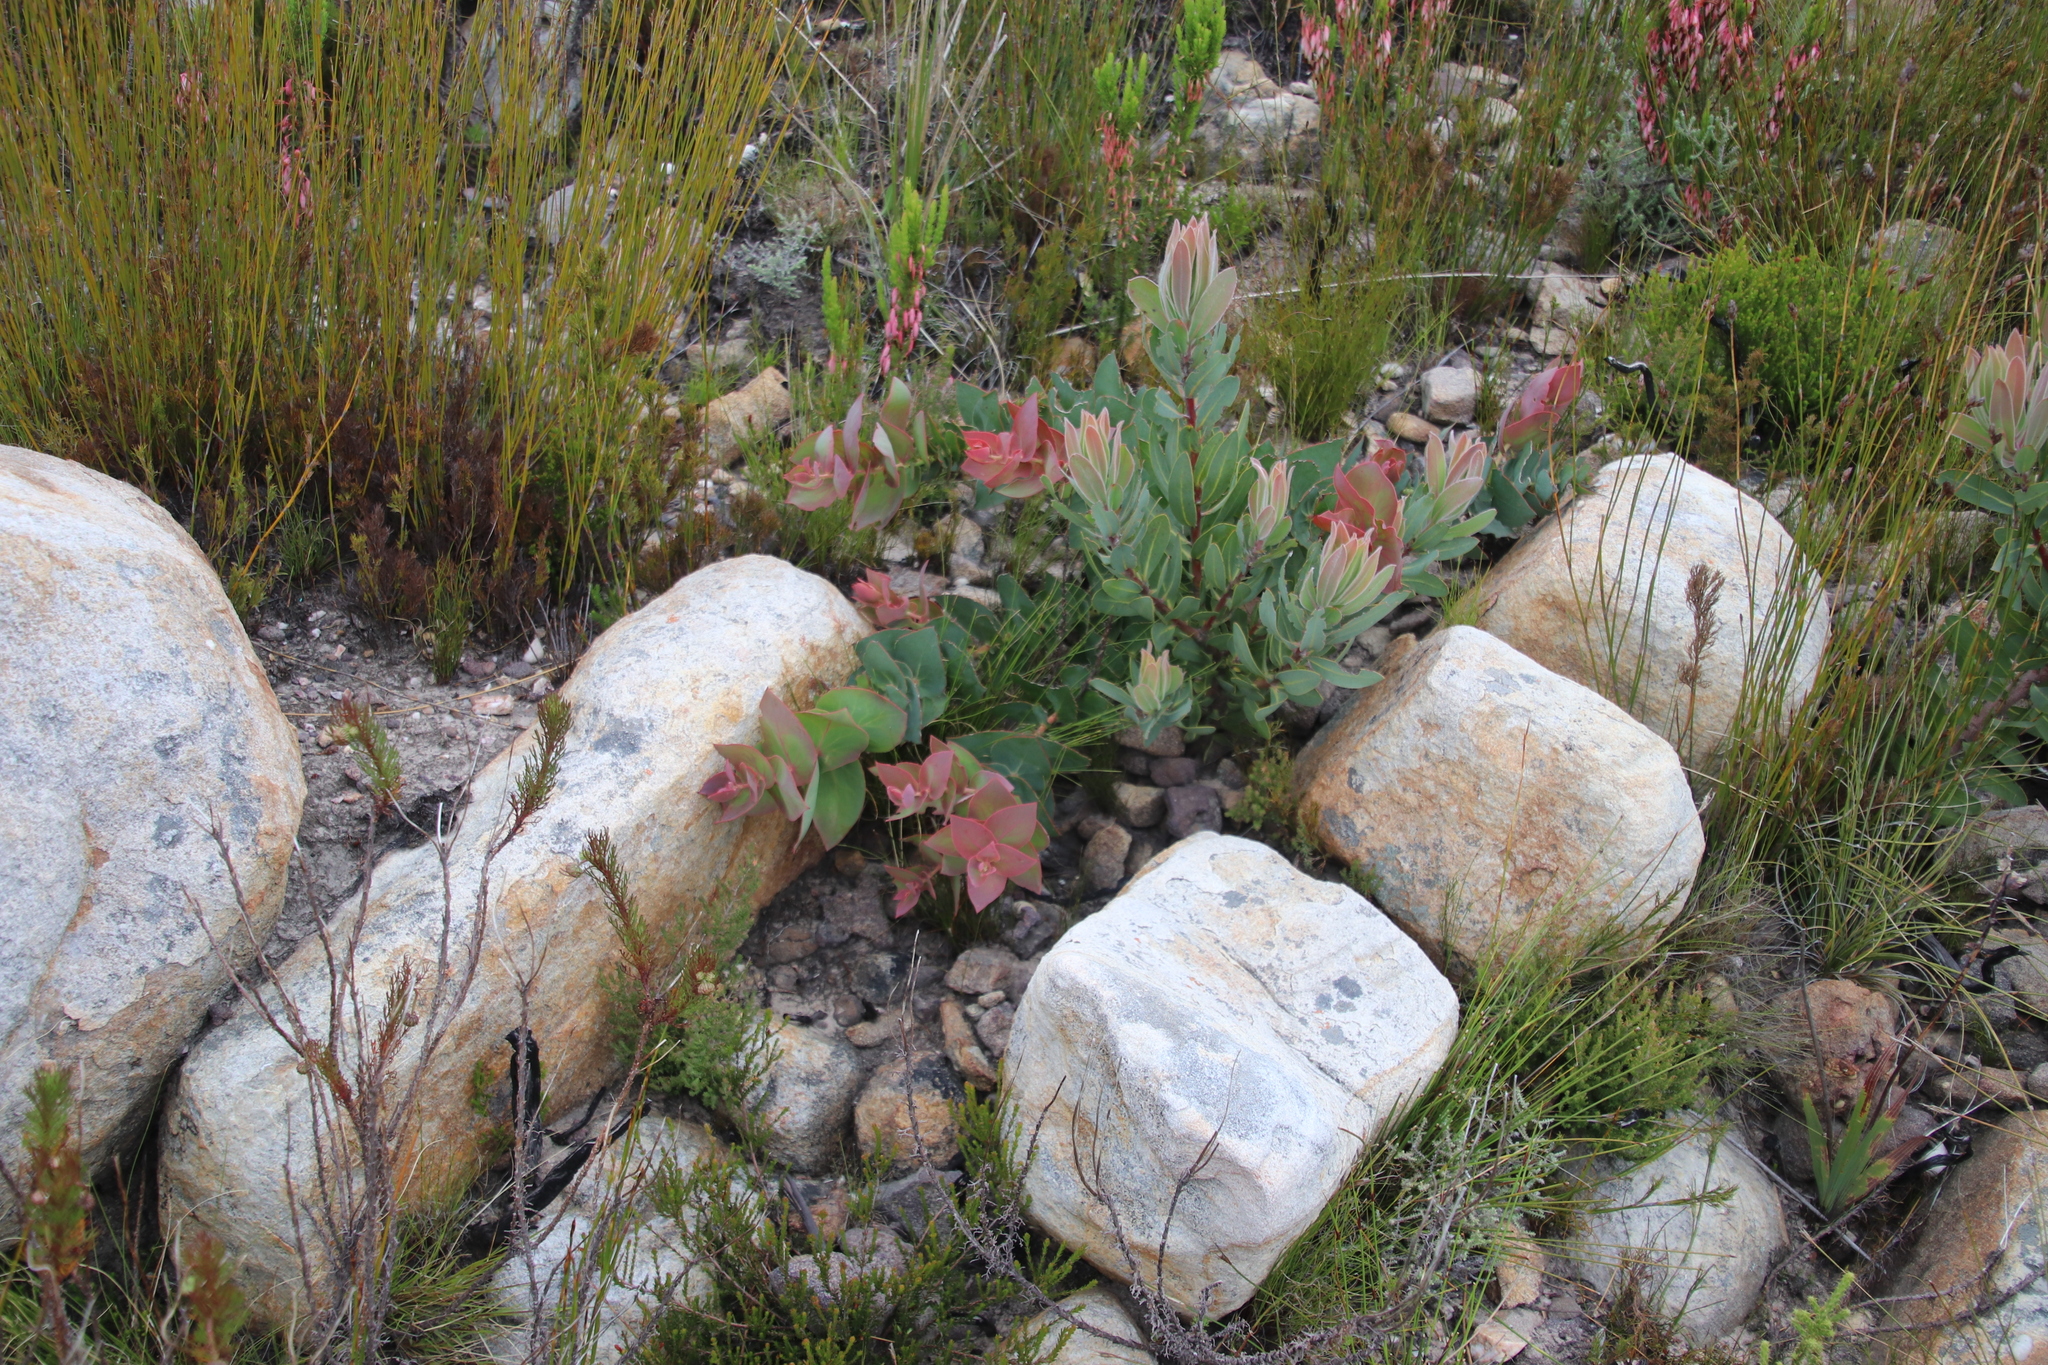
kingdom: Plantae
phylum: Tracheophyta
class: Magnoliopsida
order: Proteales
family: Proteaceae
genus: Protea
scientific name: Protea amplexicaulis
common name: Clasping-leaf sugarbush
